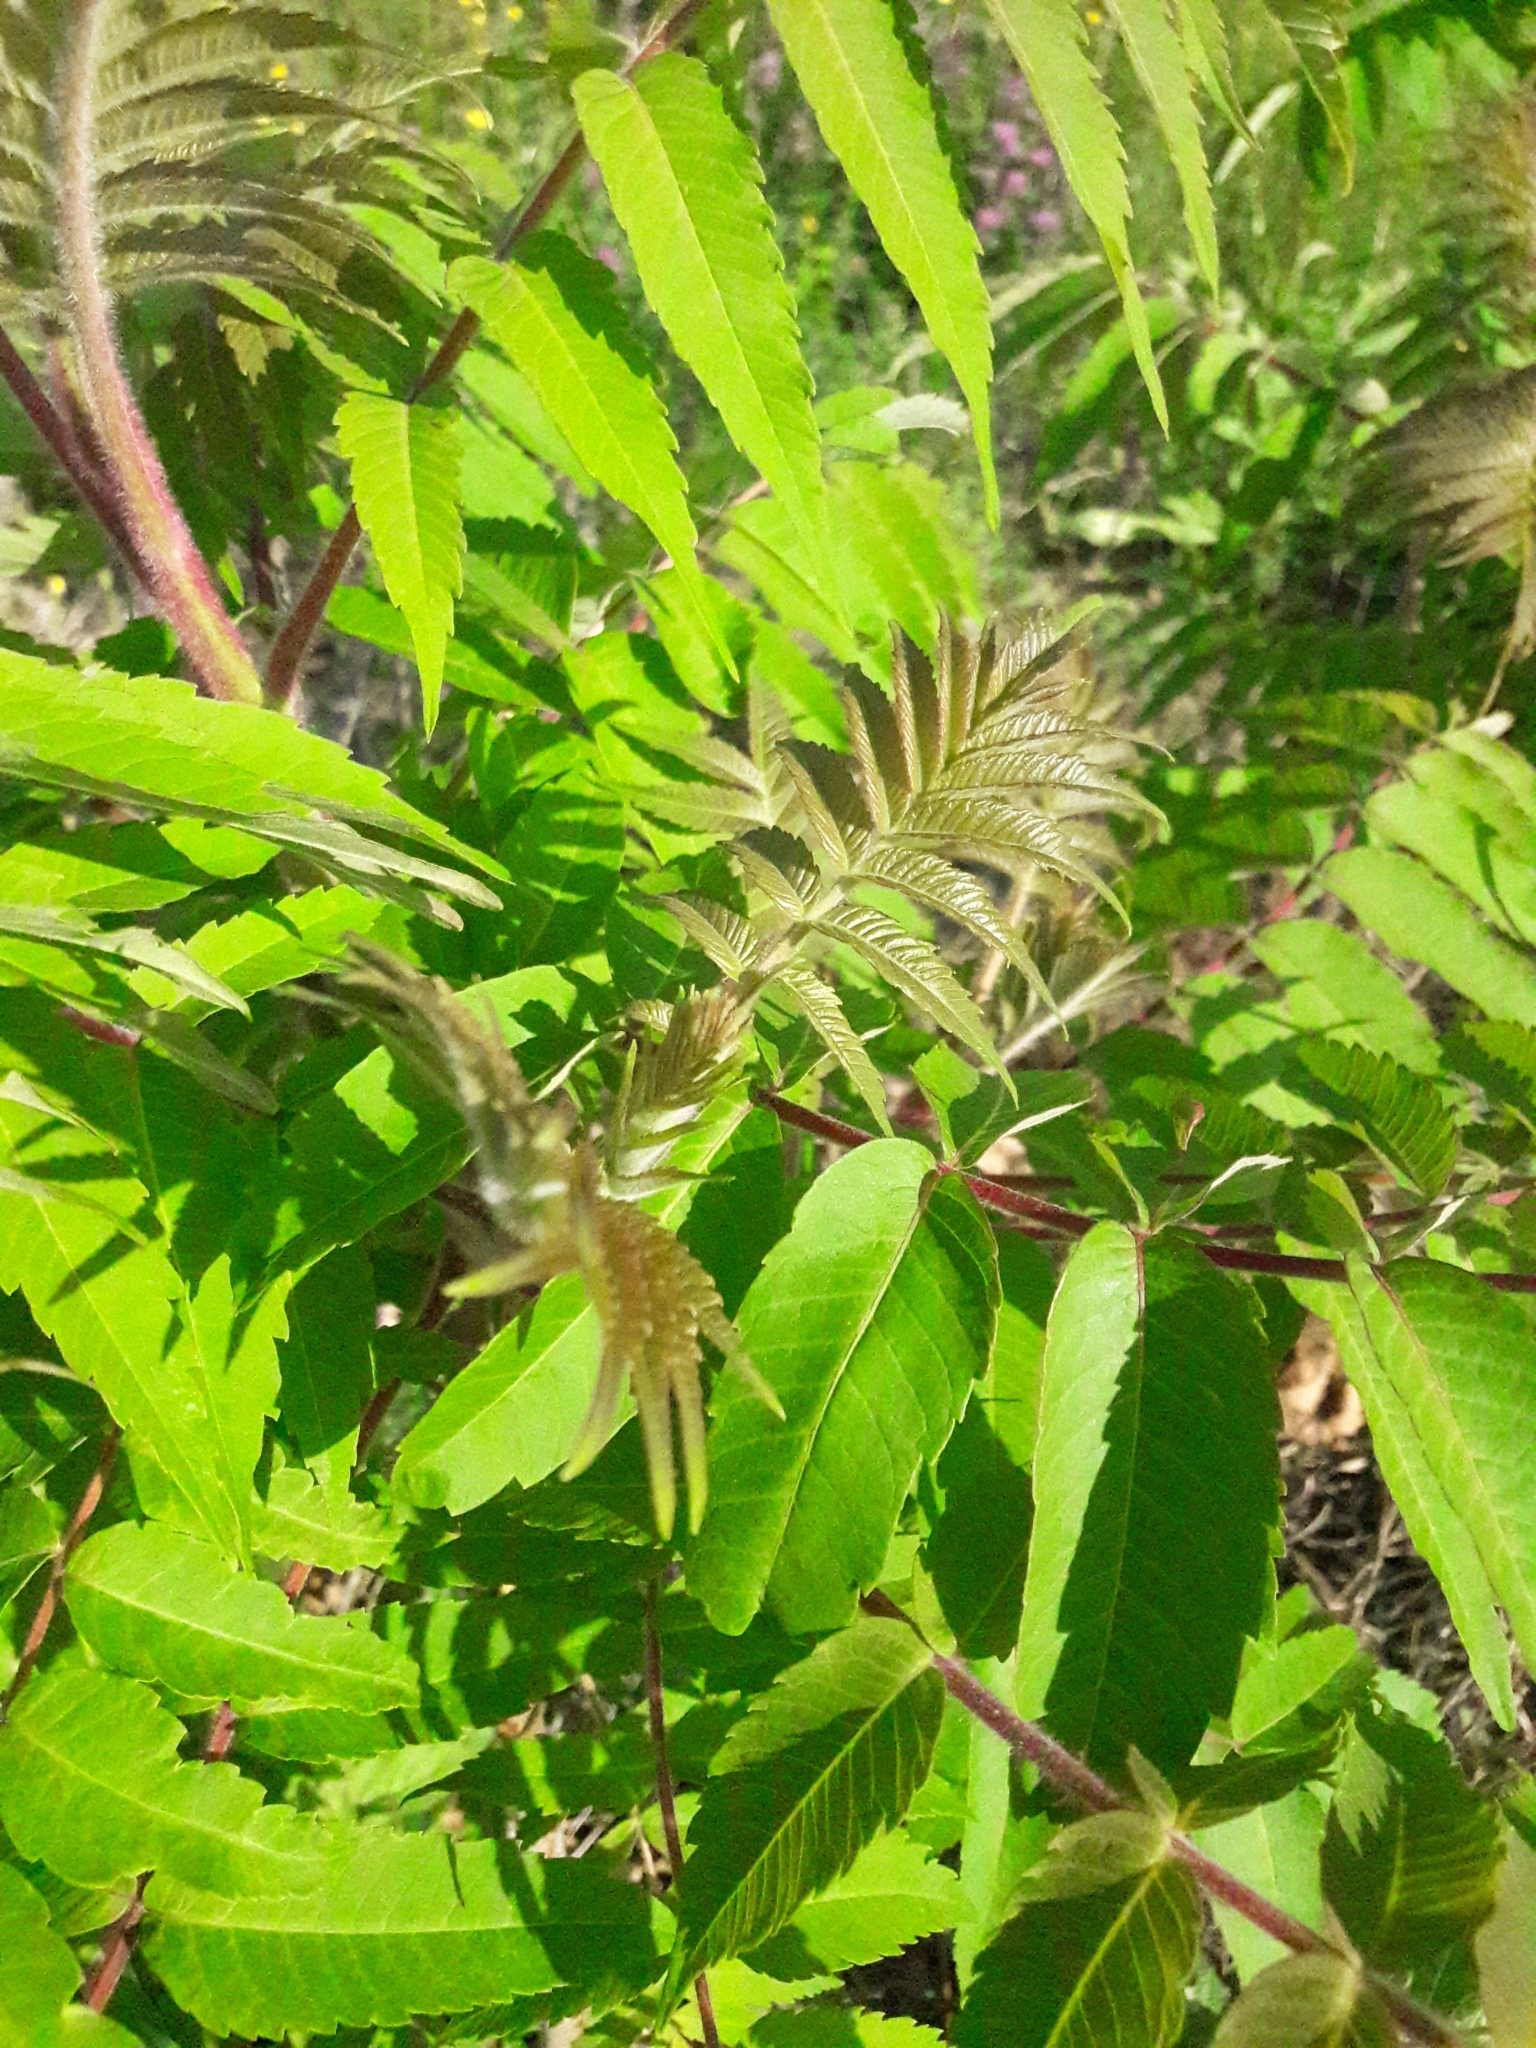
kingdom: Plantae
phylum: Tracheophyta
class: Magnoliopsida
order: Sapindales
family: Anacardiaceae
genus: Rhus
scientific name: Rhus typhina
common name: Staghorn sumac
